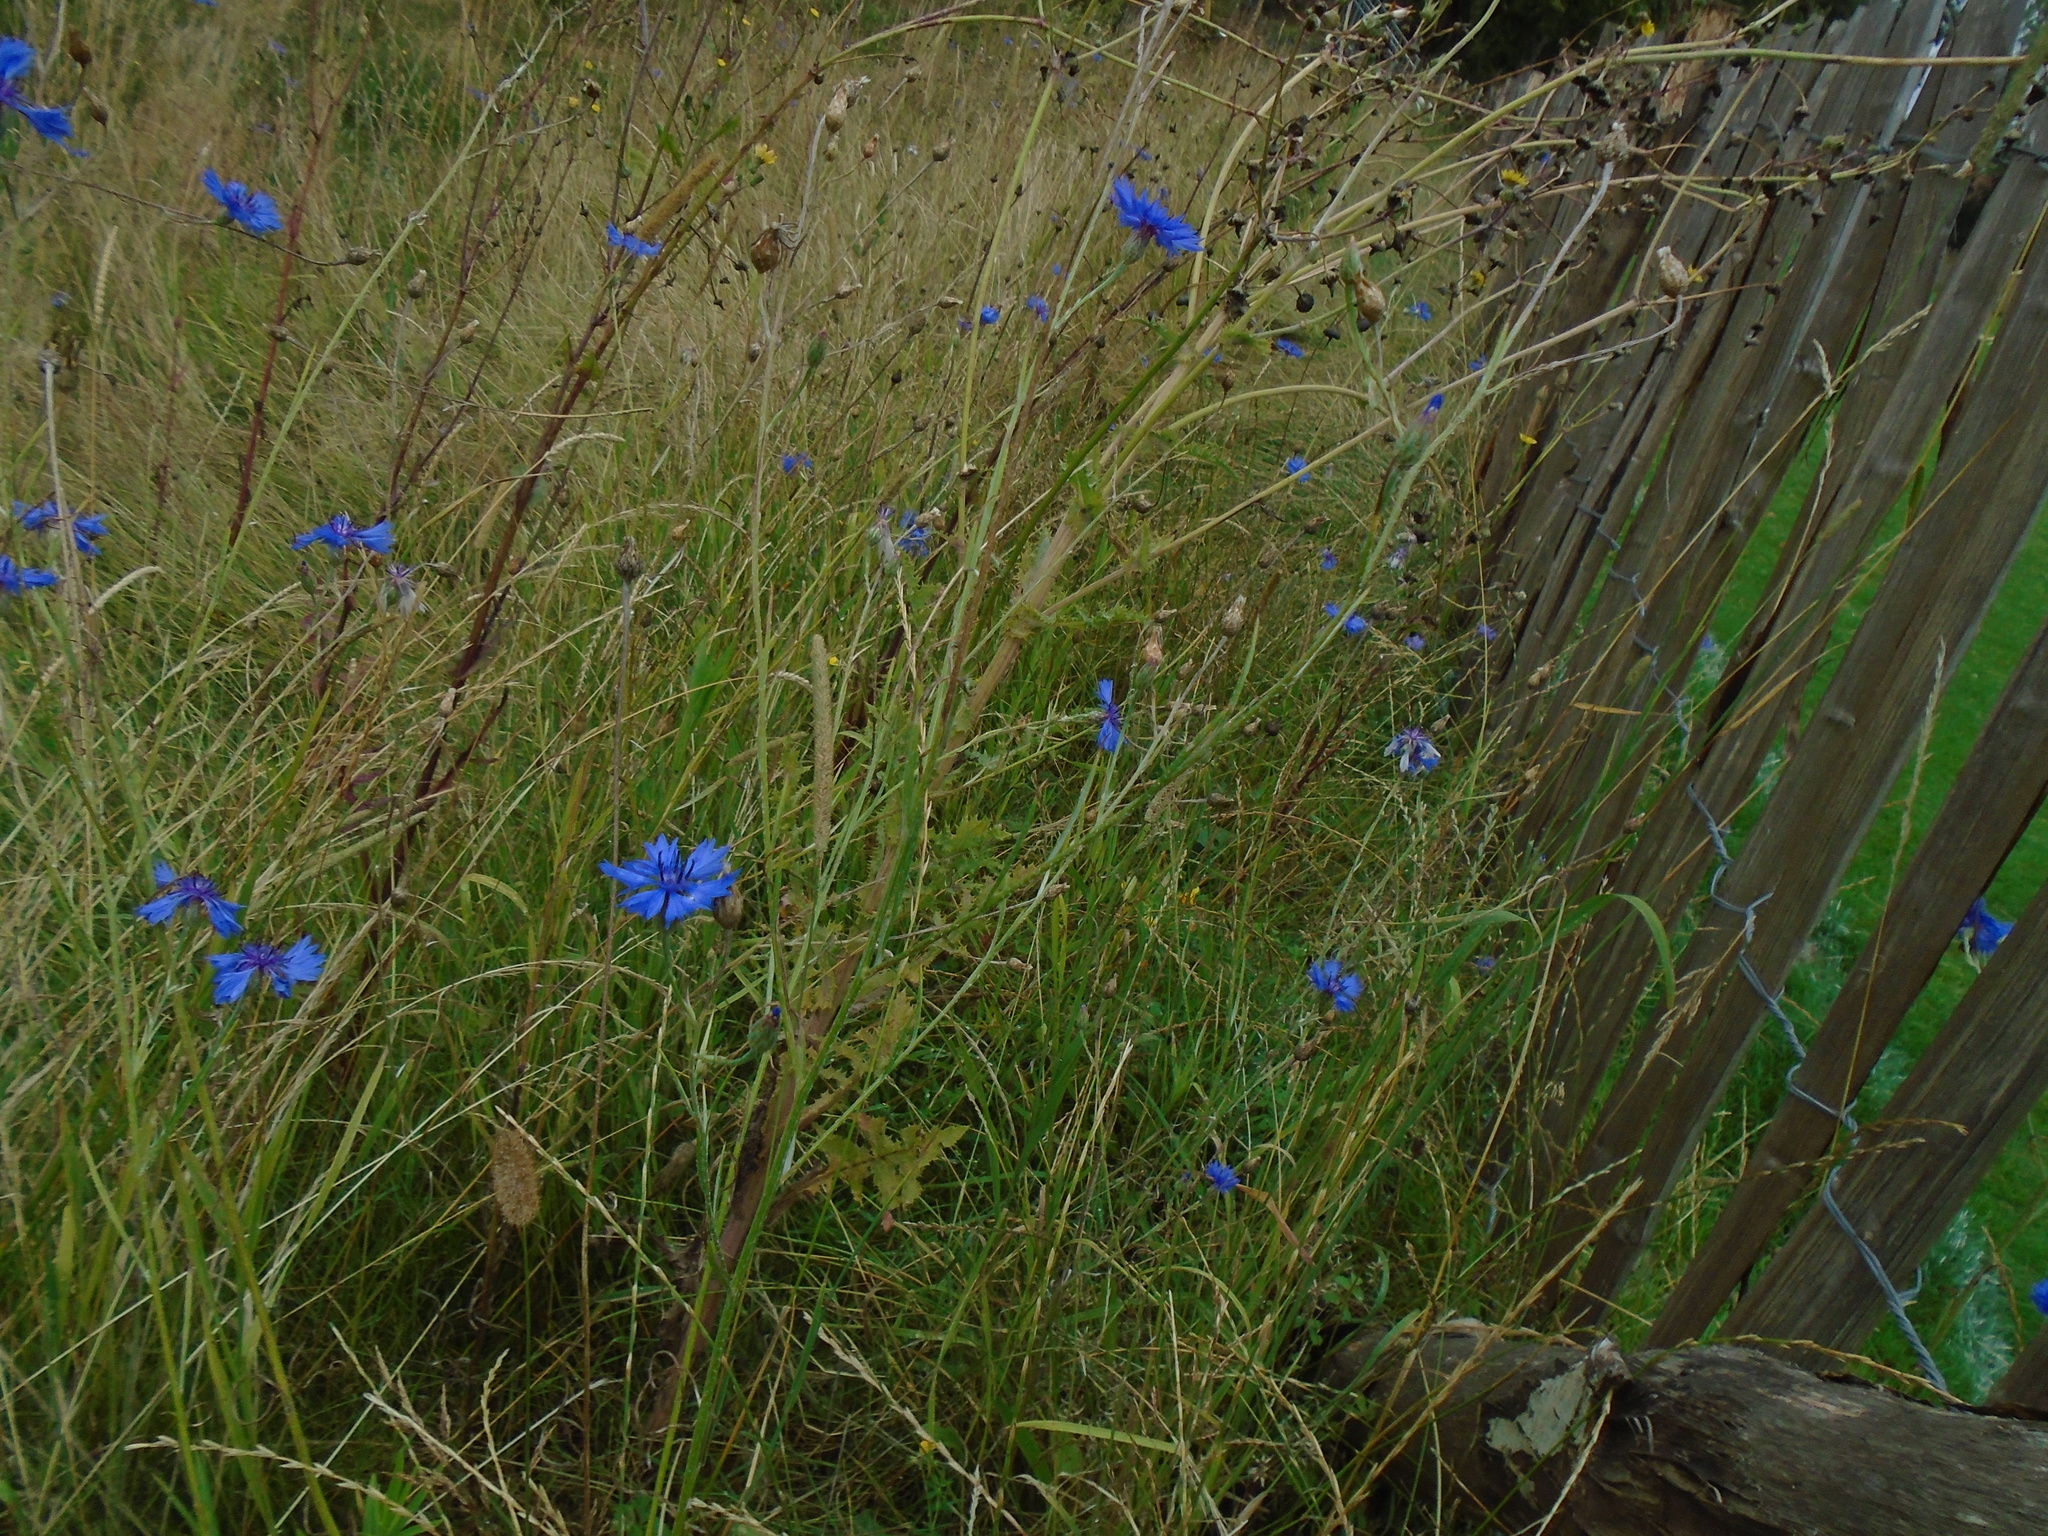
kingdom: Plantae
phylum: Tracheophyta
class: Magnoliopsida
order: Asterales
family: Asteraceae
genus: Centaurea
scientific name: Centaurea cyanus
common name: Cornflower
